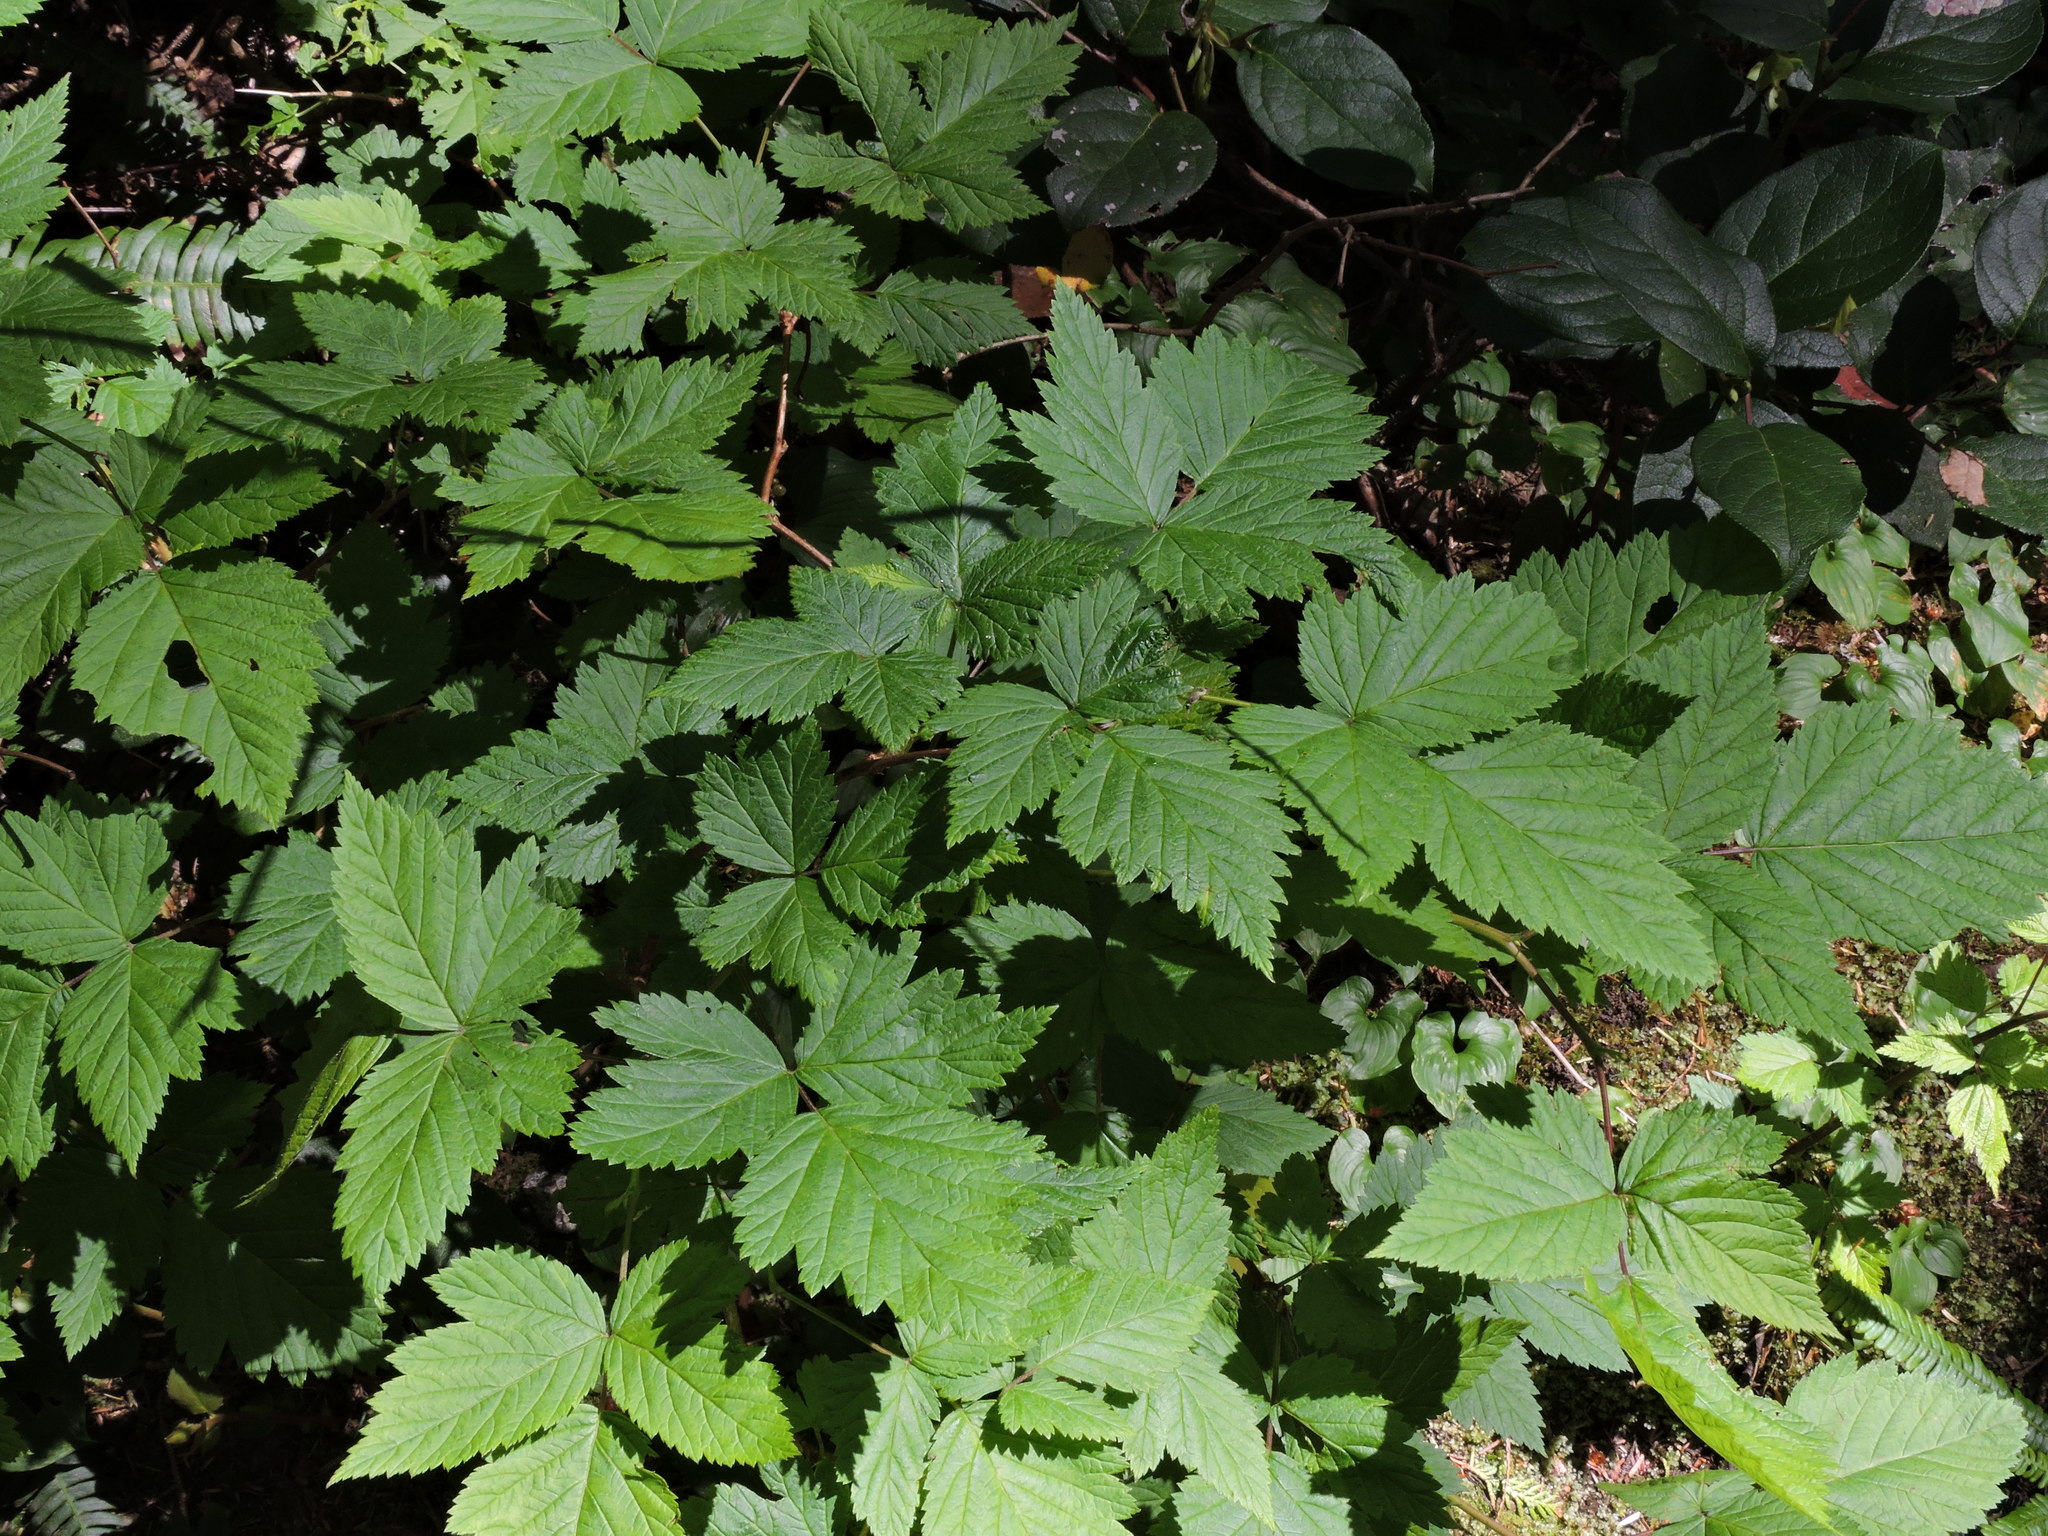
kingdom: Plantae
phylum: Tracheophyta
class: Magnoliopsida
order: Rosales
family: Rosaceae
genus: Rubus
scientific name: Rubus spectabilis
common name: Salmonberry
